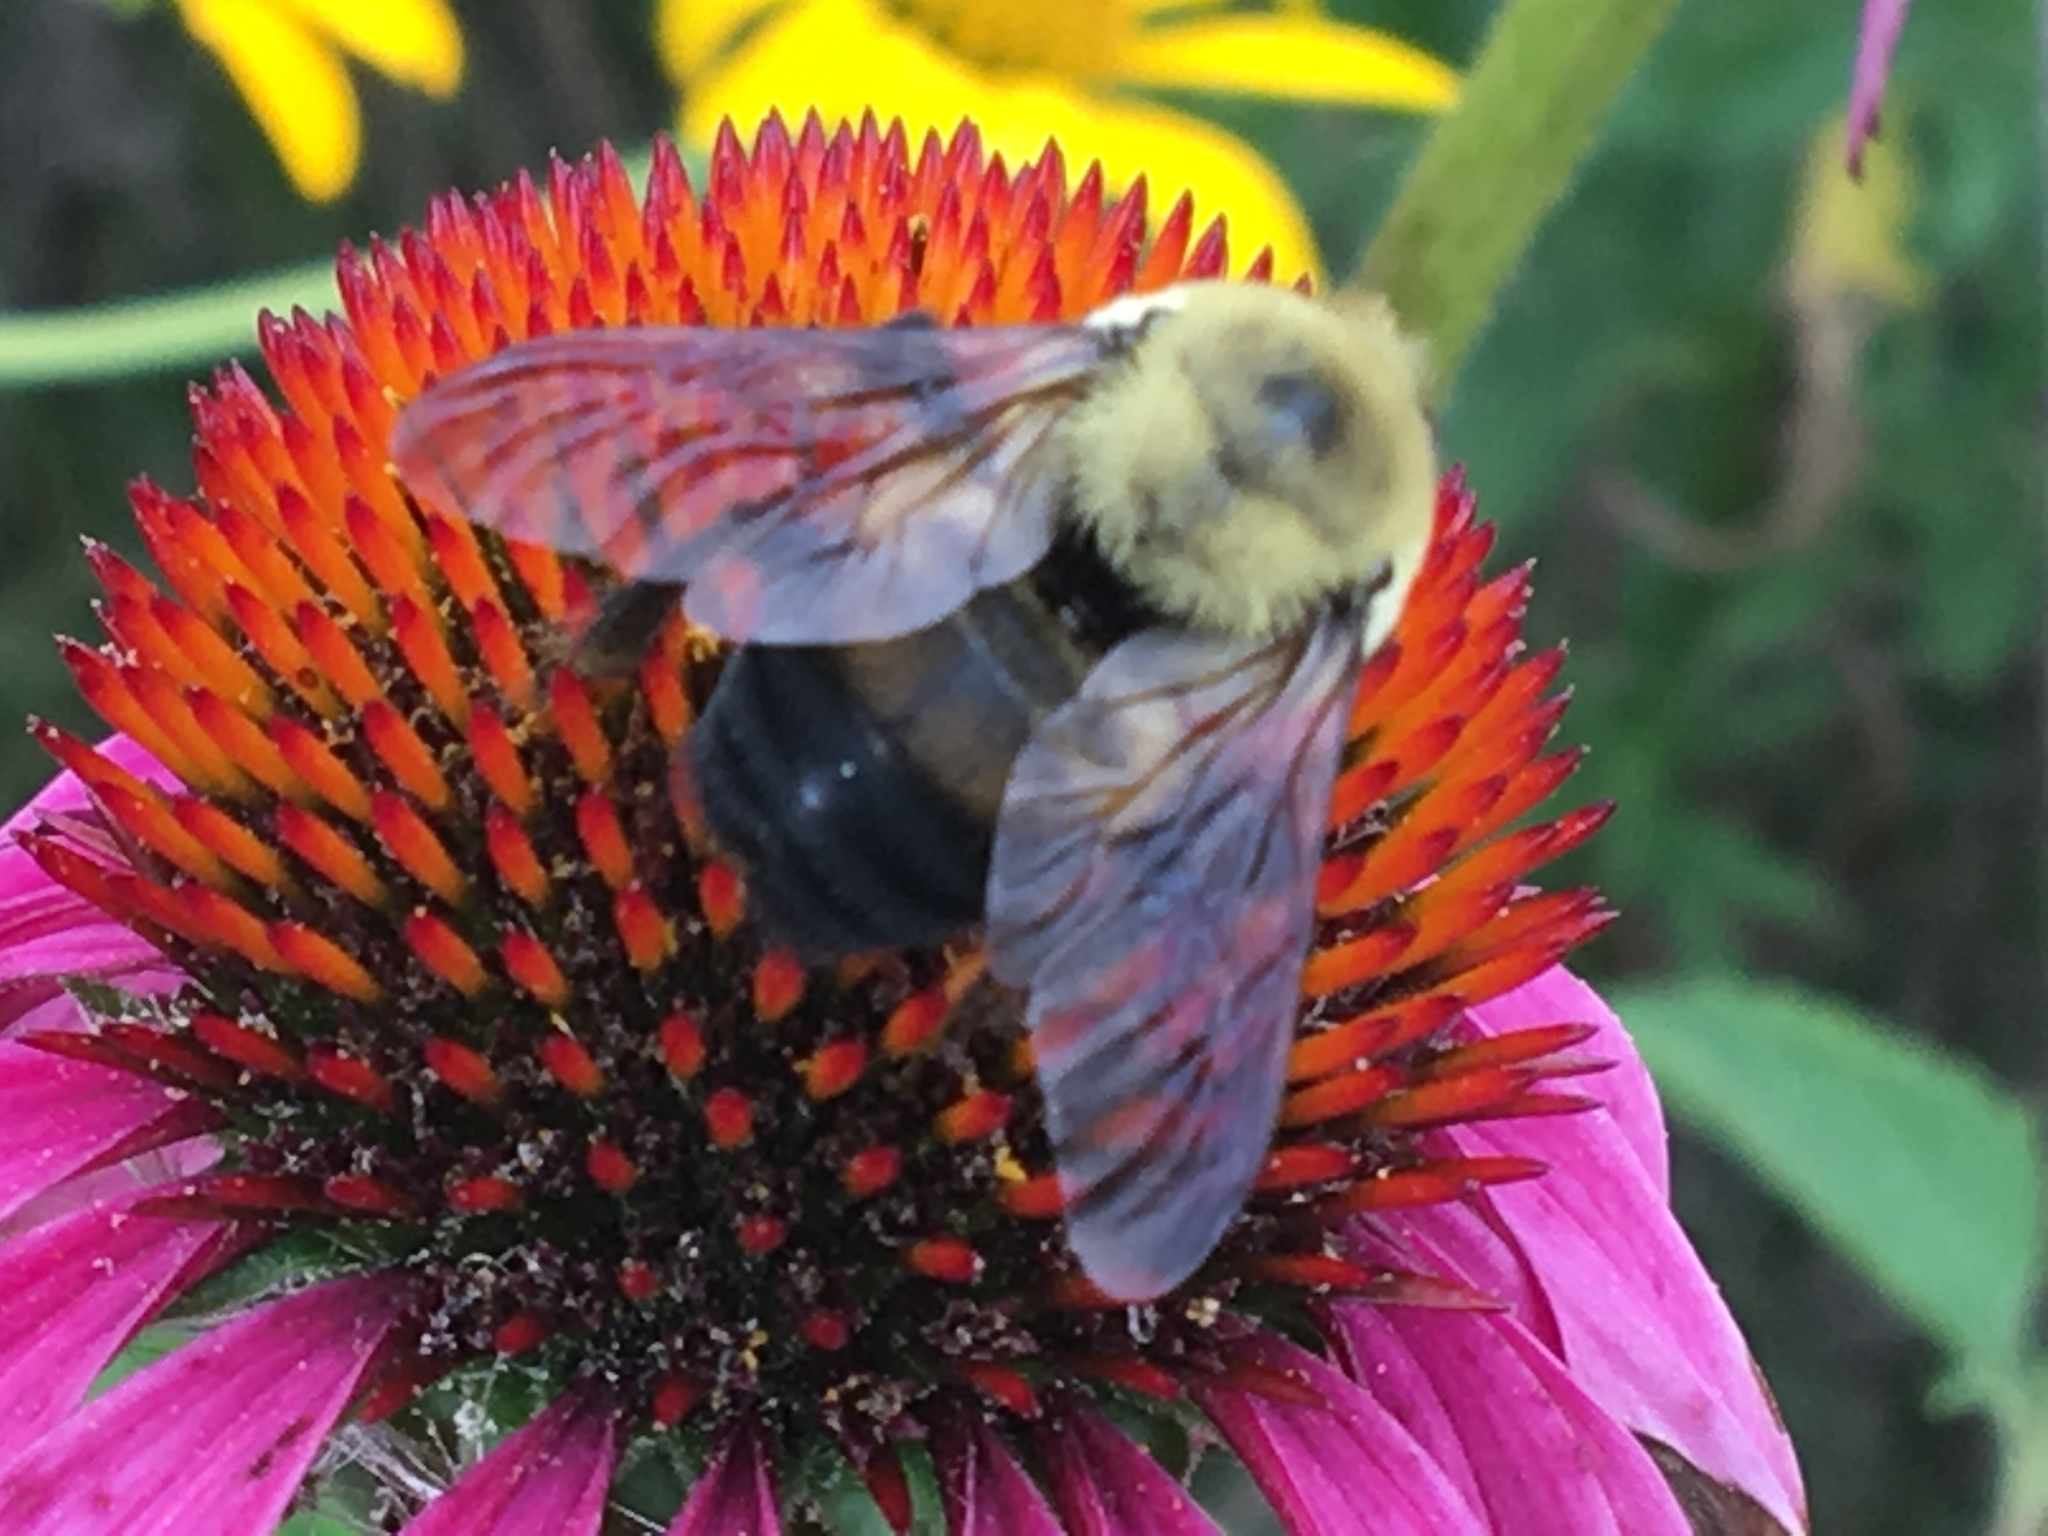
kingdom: Animalia
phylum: Arthropoda
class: Insecta
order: Hymenoptera
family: Apidae
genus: Bombus
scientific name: Bombus griseocollis
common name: Brown-belted bumble bee
